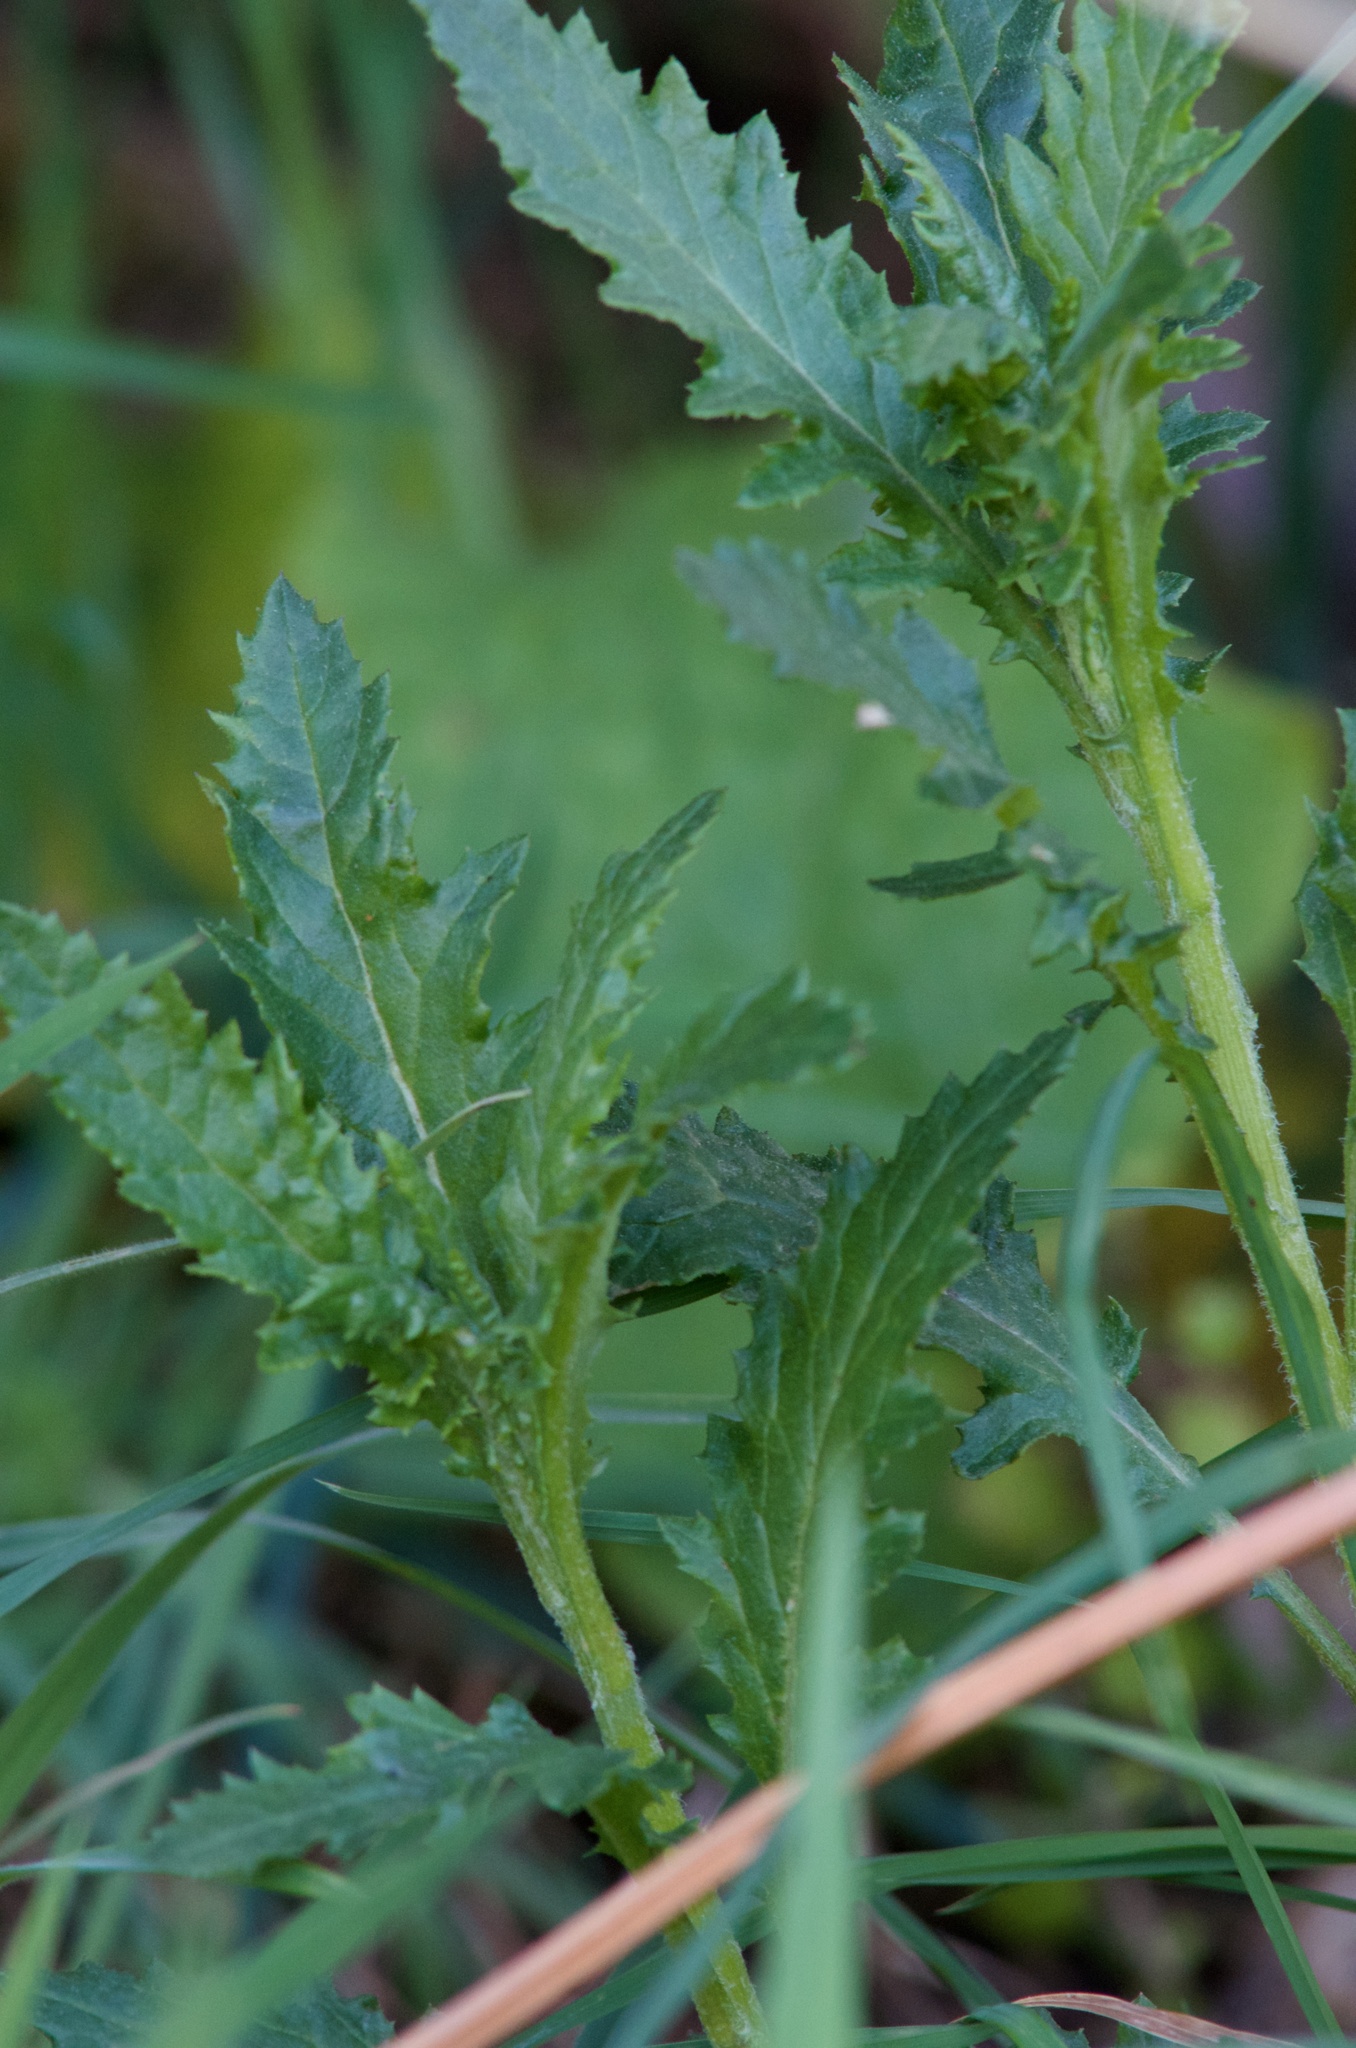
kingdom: Plantae
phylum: Tracheophyta
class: Magnoliopsida
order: Asterales
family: Asteraceae
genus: Senecio
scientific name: Senecio biserratus
